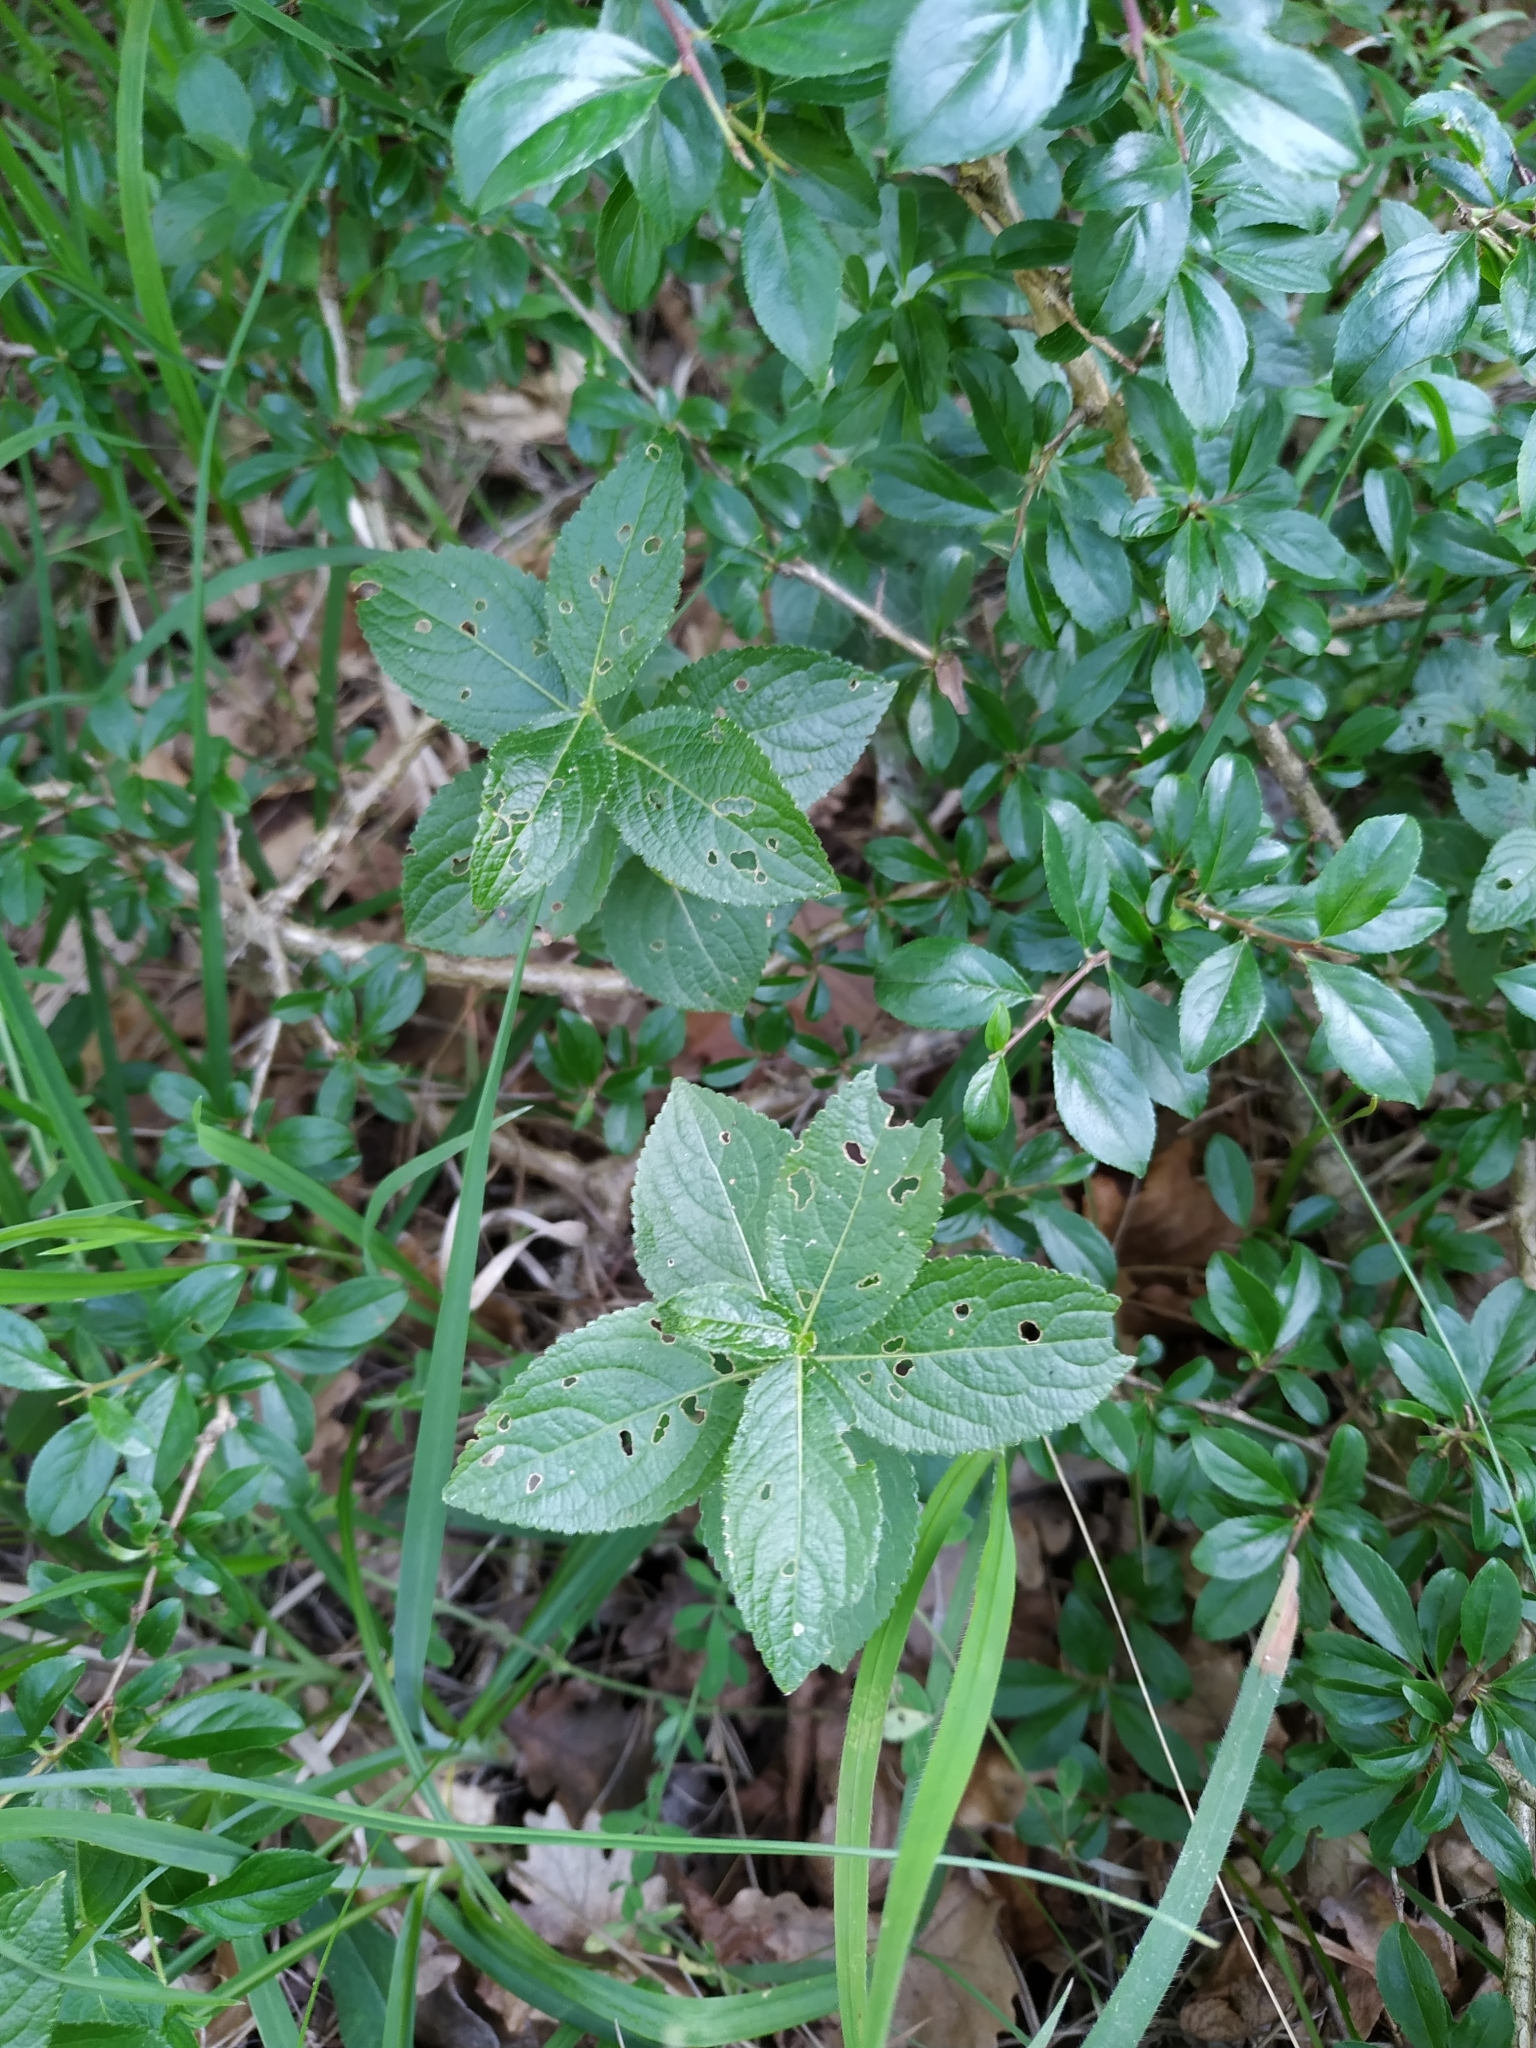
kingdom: Plantae
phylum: Tracheophyta
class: Magnoliopsida
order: Malpighiales
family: Euphorbiaceae
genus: Mercurialis
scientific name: Mercurialis ovata
